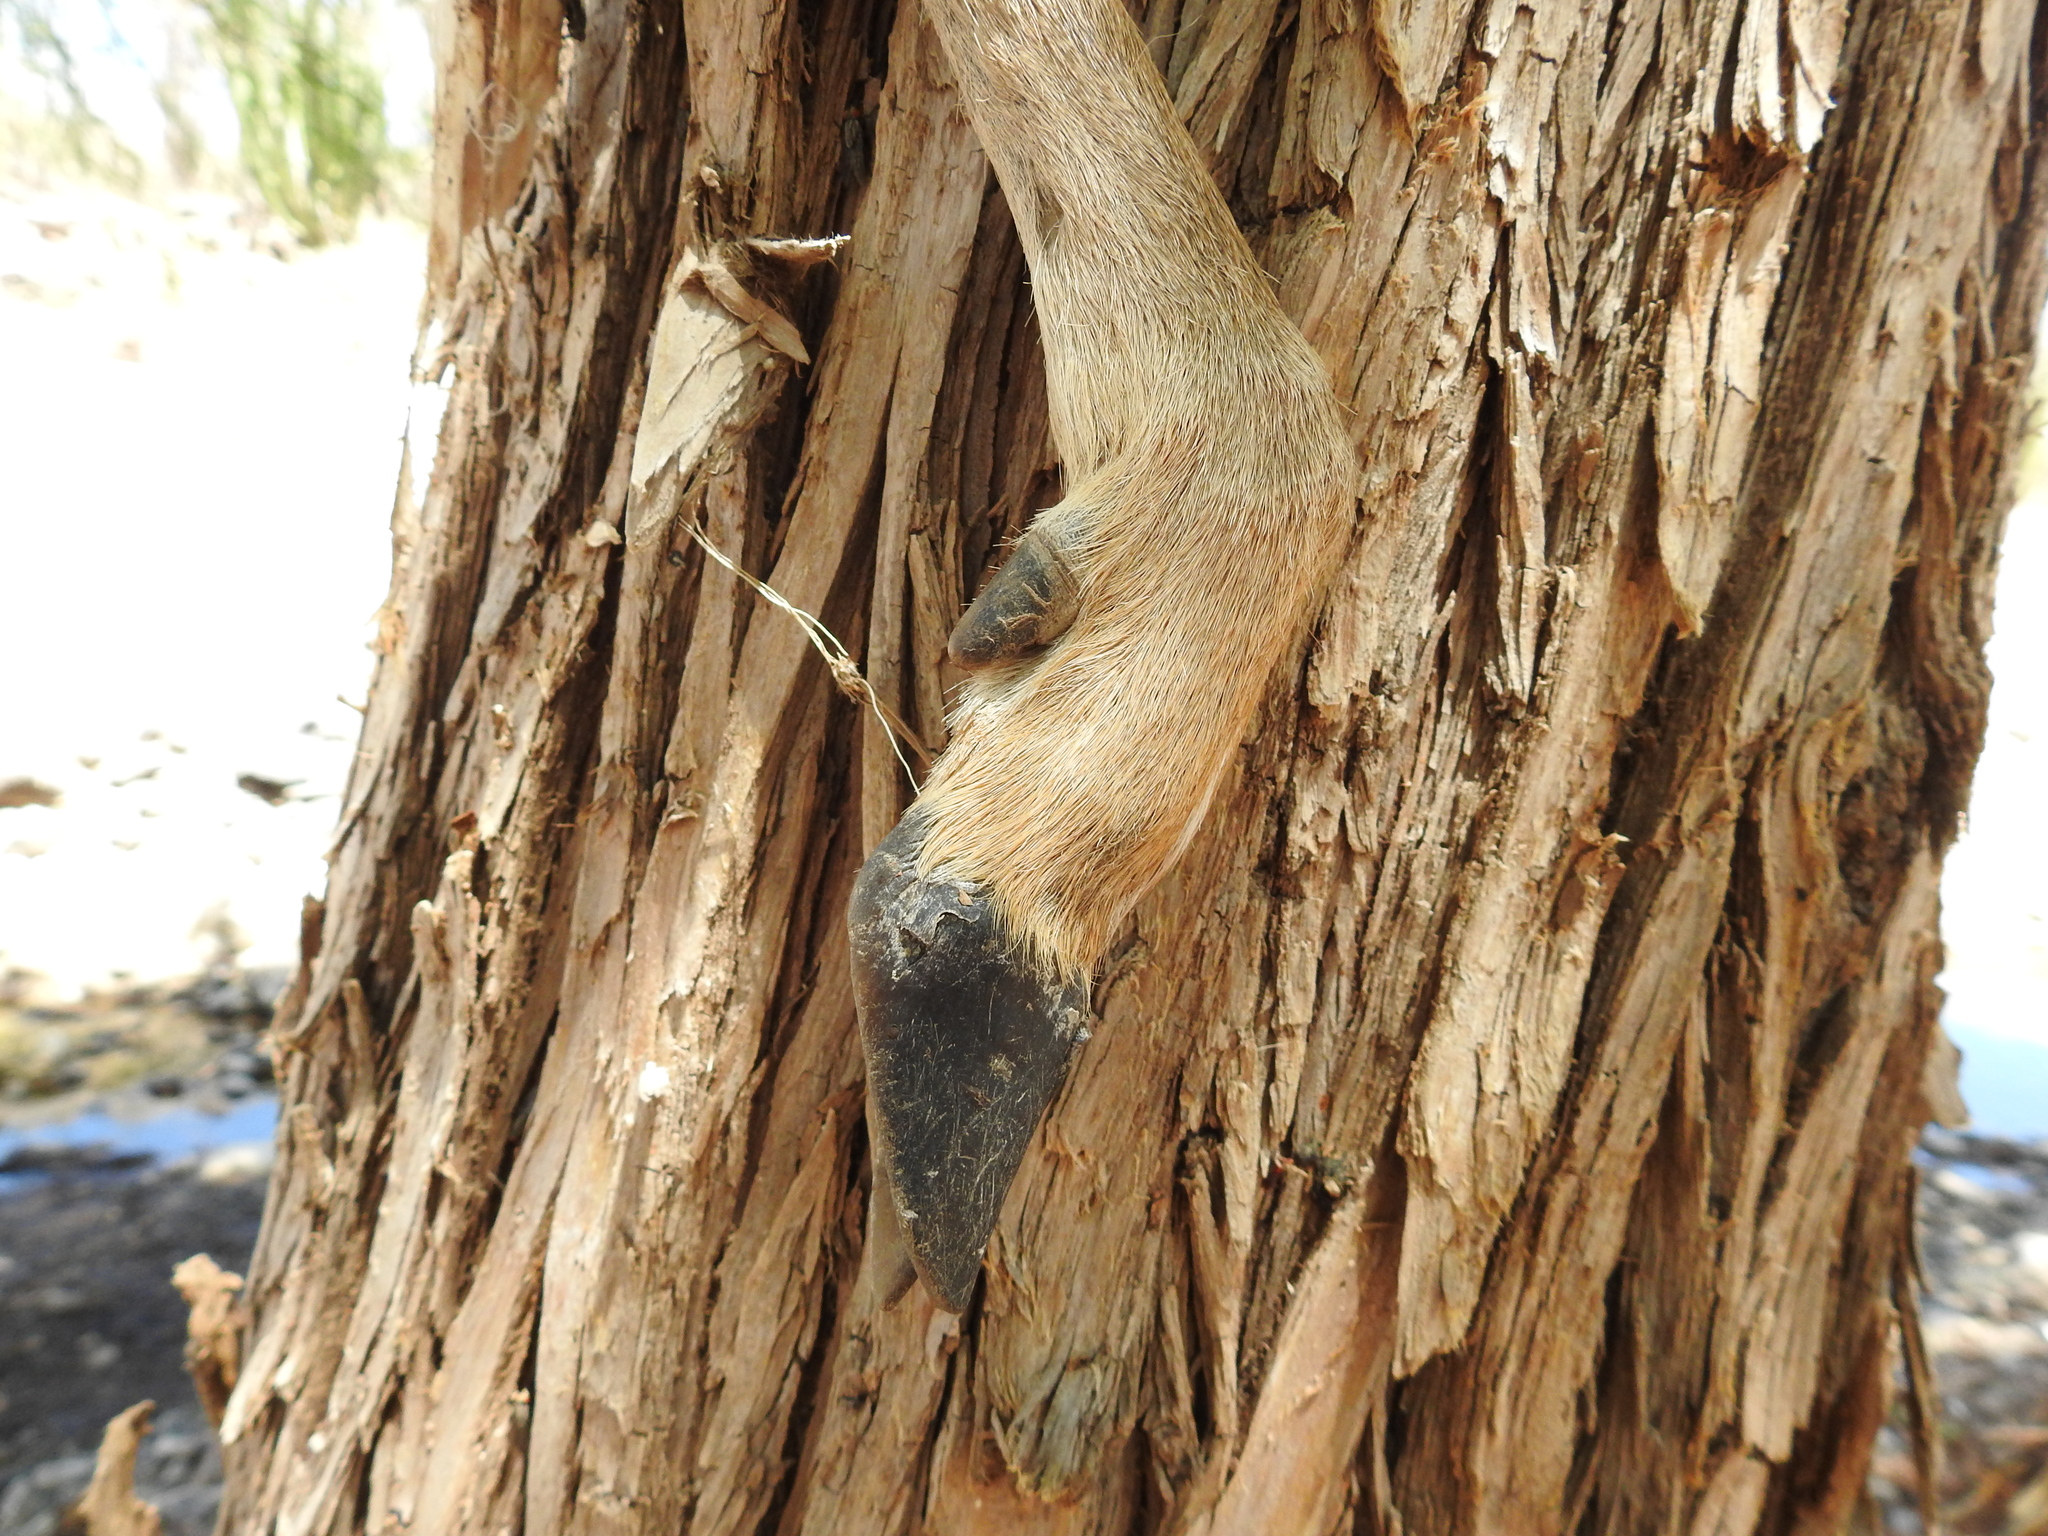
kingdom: Animalia
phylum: Chordata
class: Mammalia
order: Artiodactyla
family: Cervidae
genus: Odocoileus
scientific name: Odocoileus virginianus
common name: White-tailed deer
